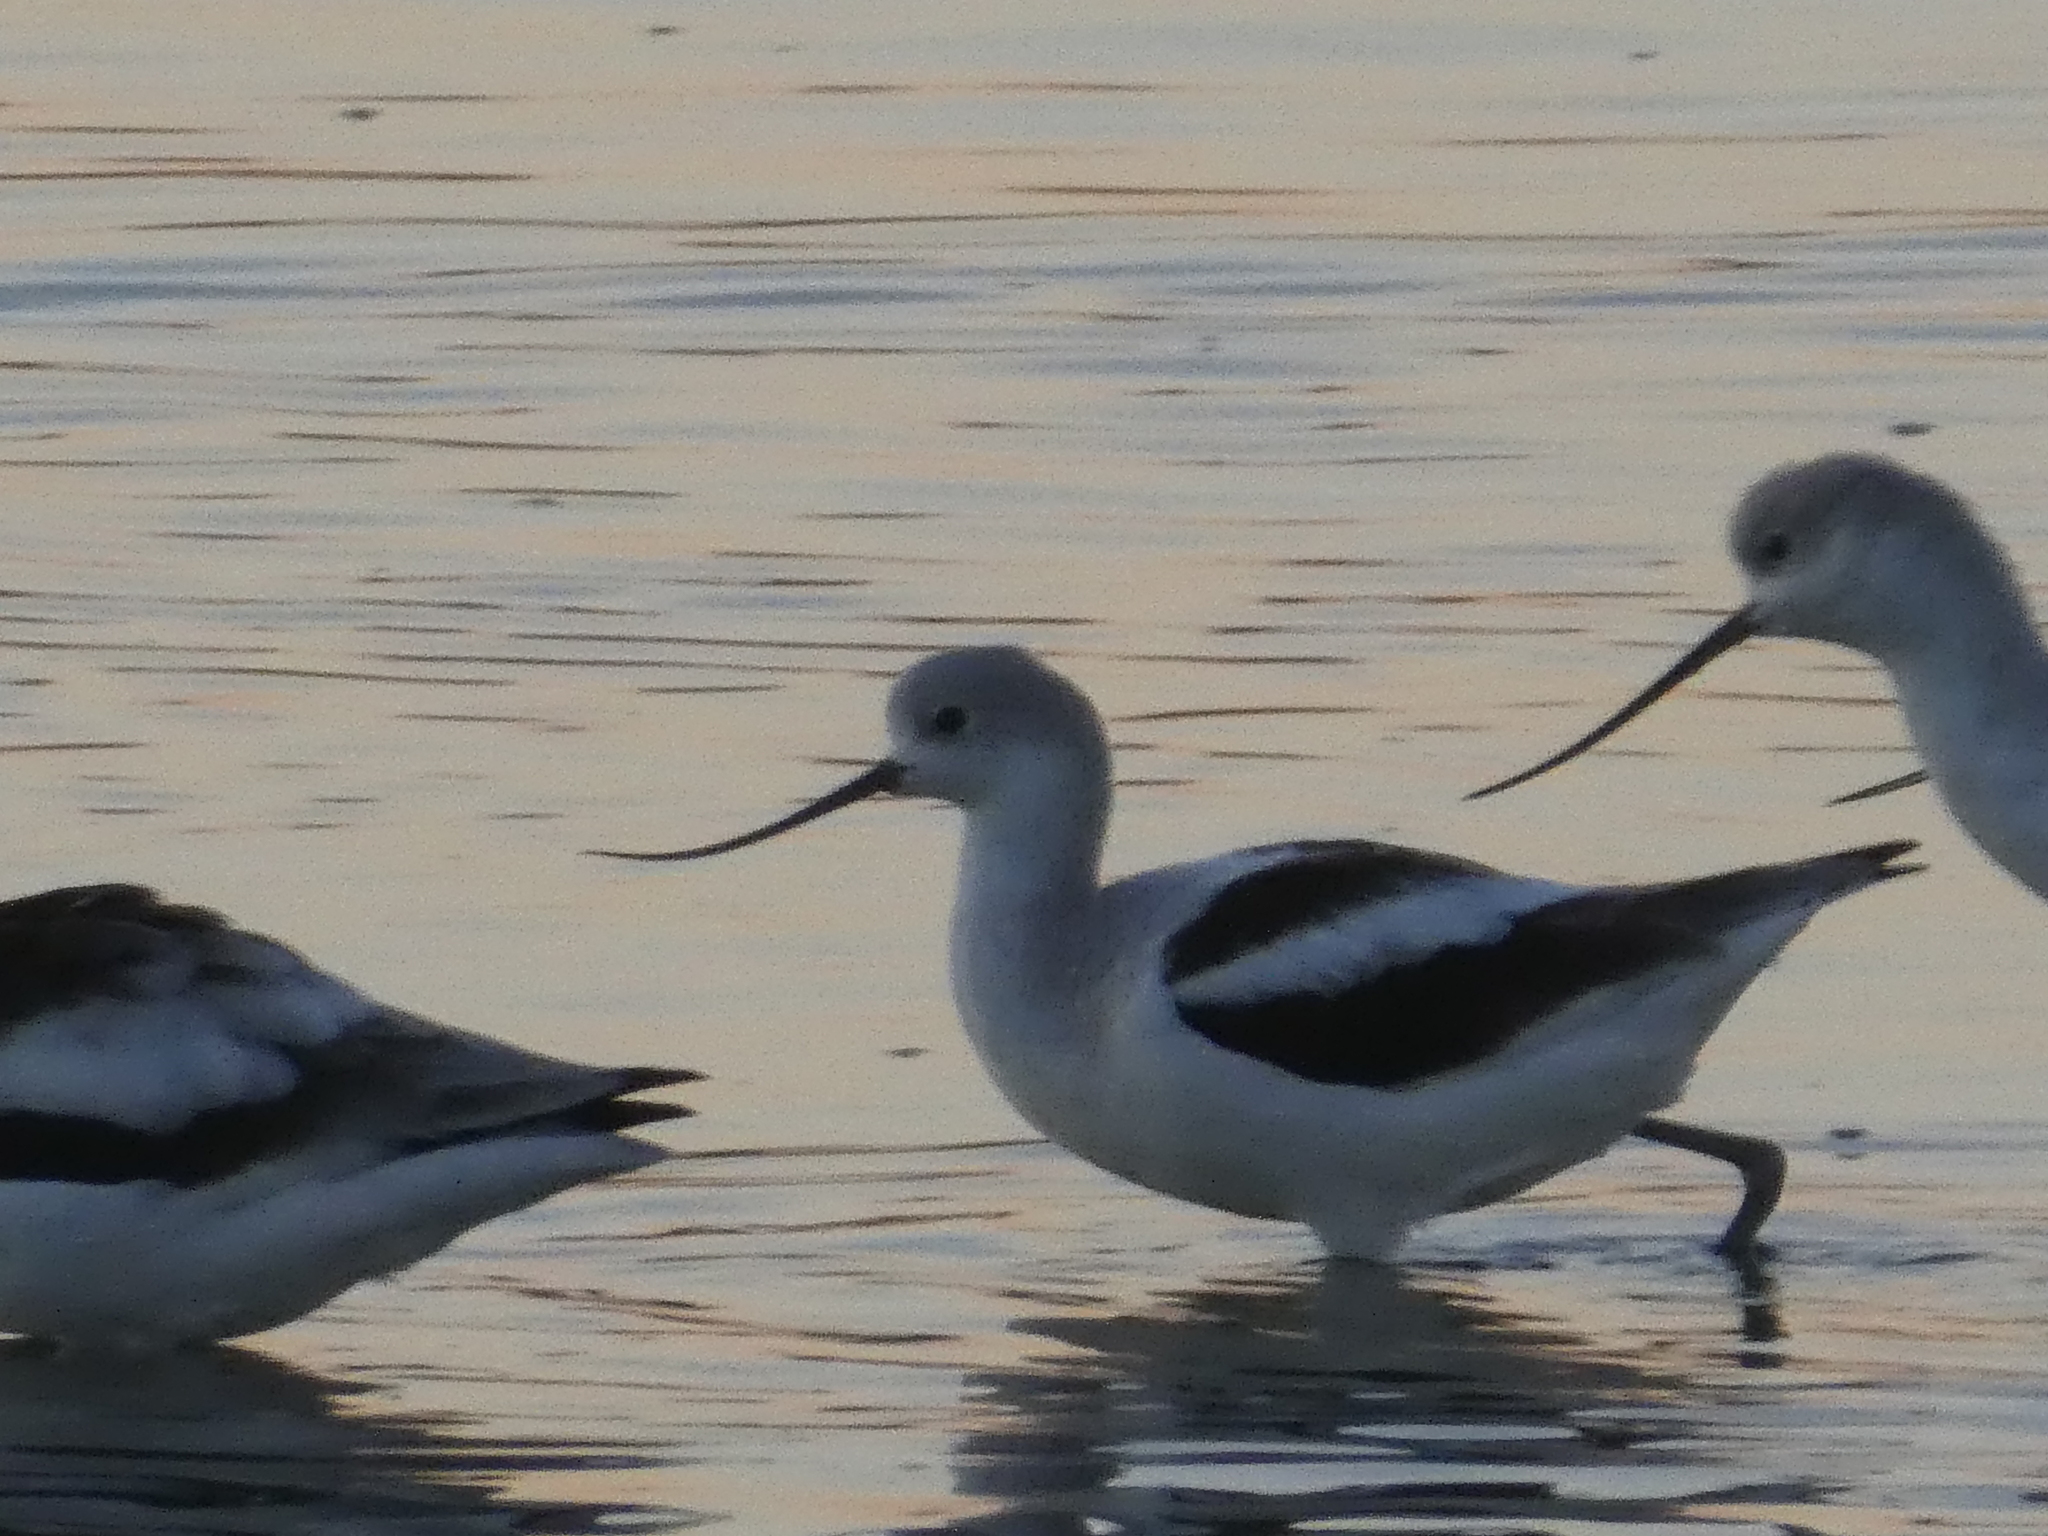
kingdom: Animalia
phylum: Chordata
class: Aves
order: Charadriiformes
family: Recurvirostridae
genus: Recurvirostra
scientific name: Recurvirostra americana
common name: American avocet
